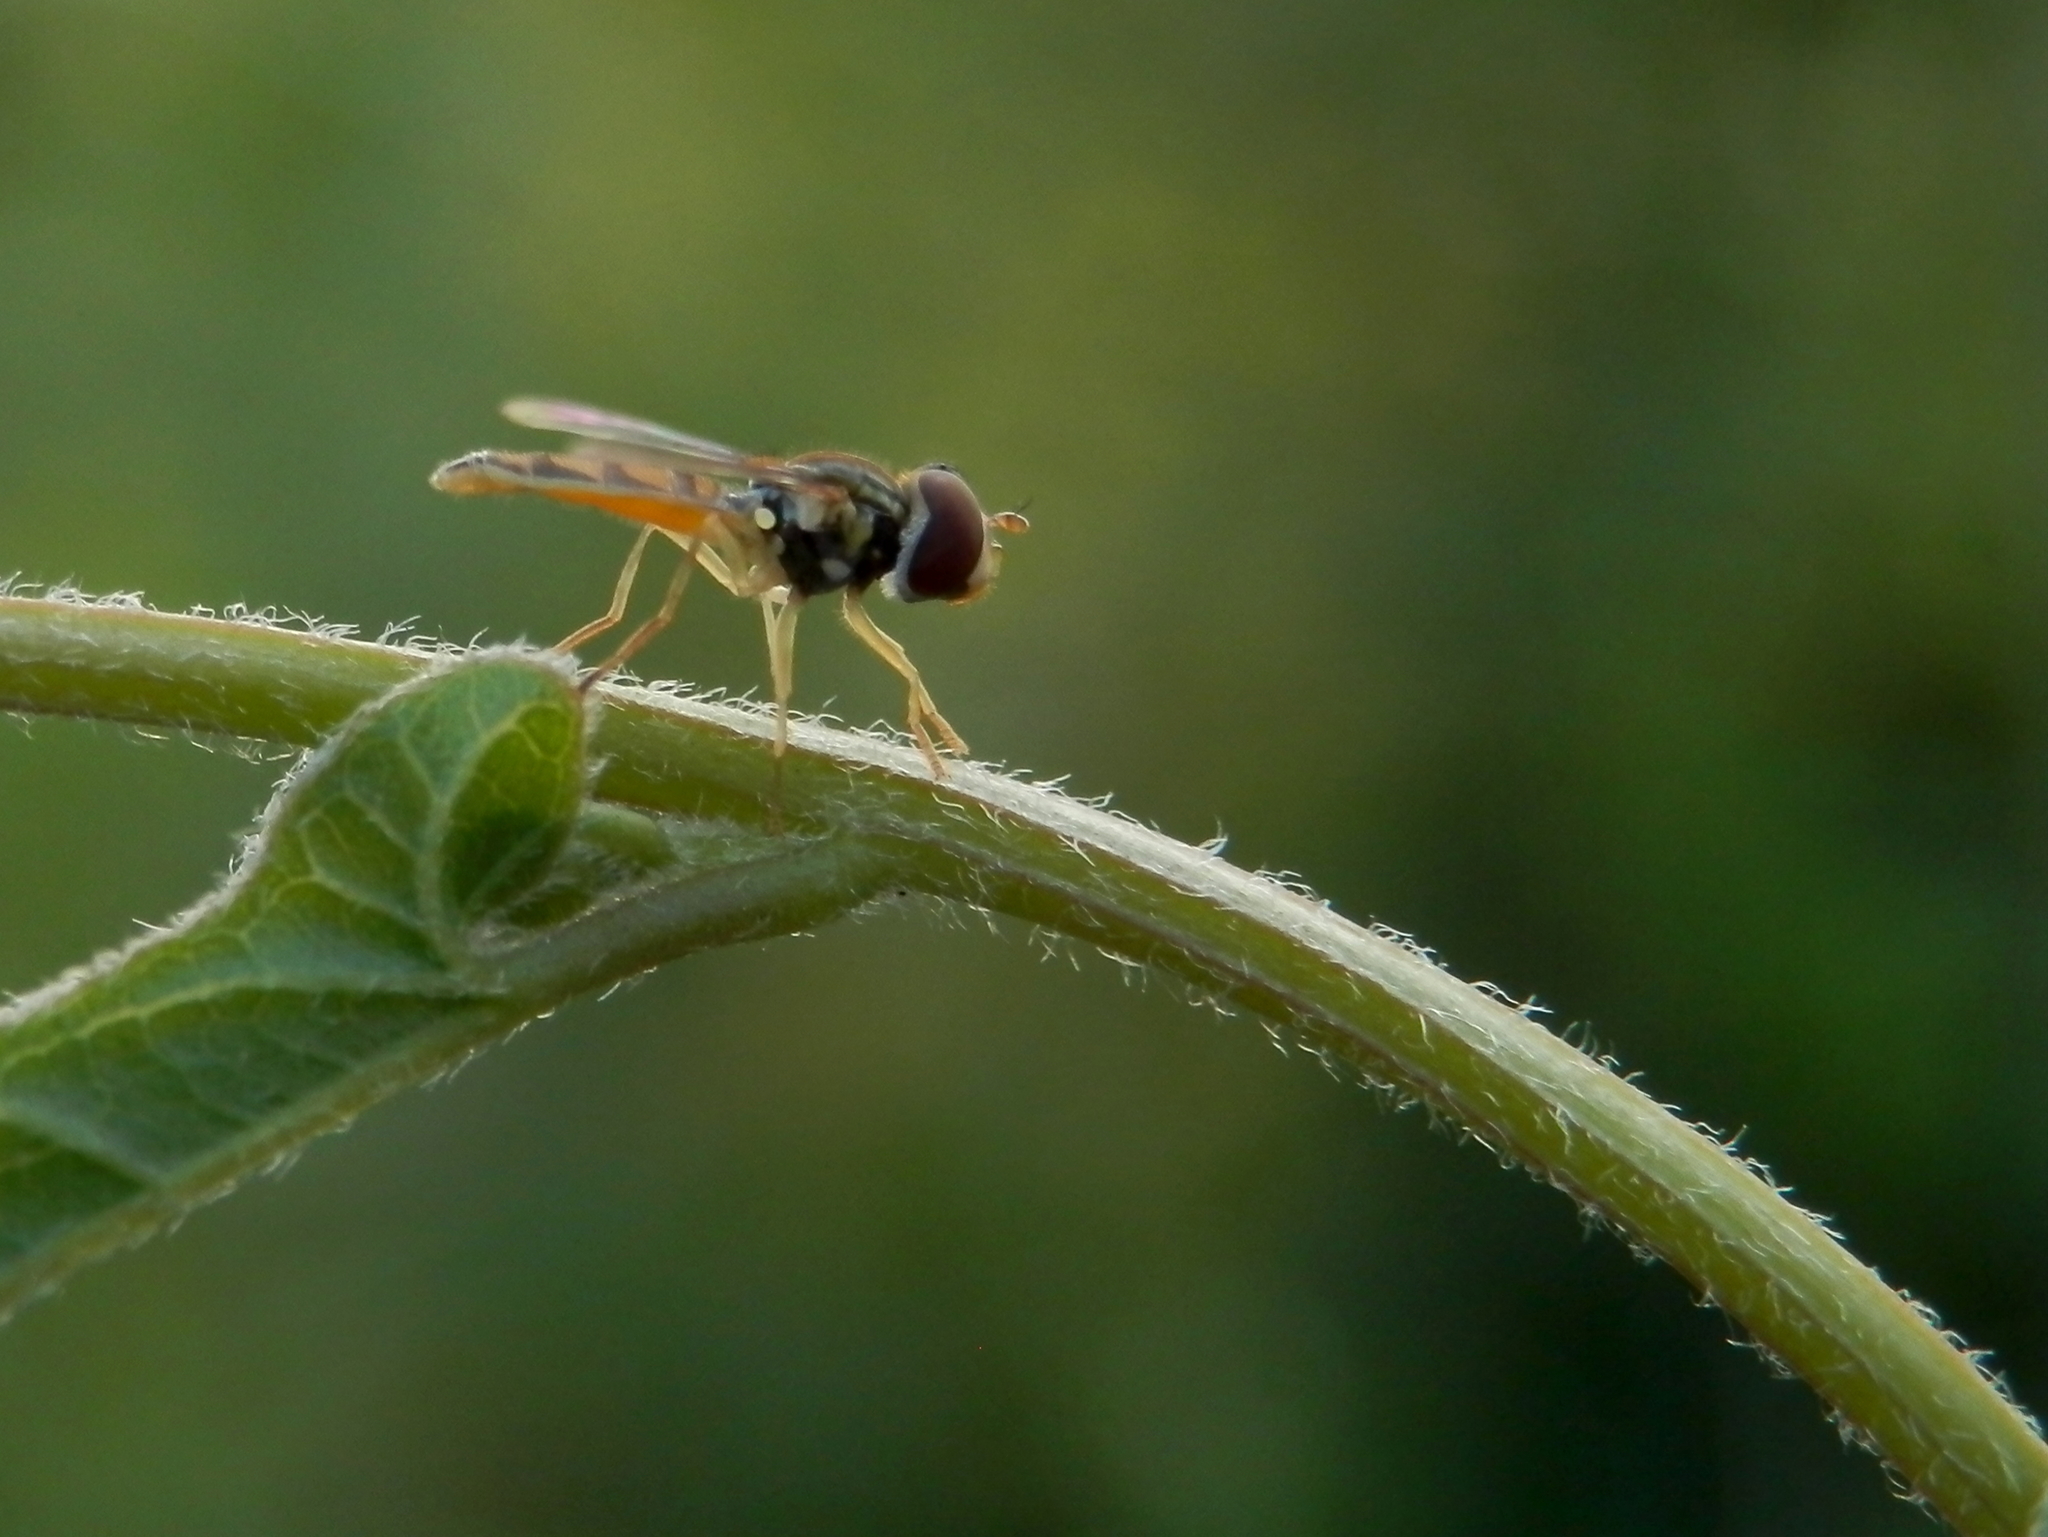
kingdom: Animalia
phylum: Arthropoda
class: Insecta
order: Diptera
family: Syrphidae
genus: Toxomerus
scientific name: Toxomerus marginatus
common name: Syrphid fly
